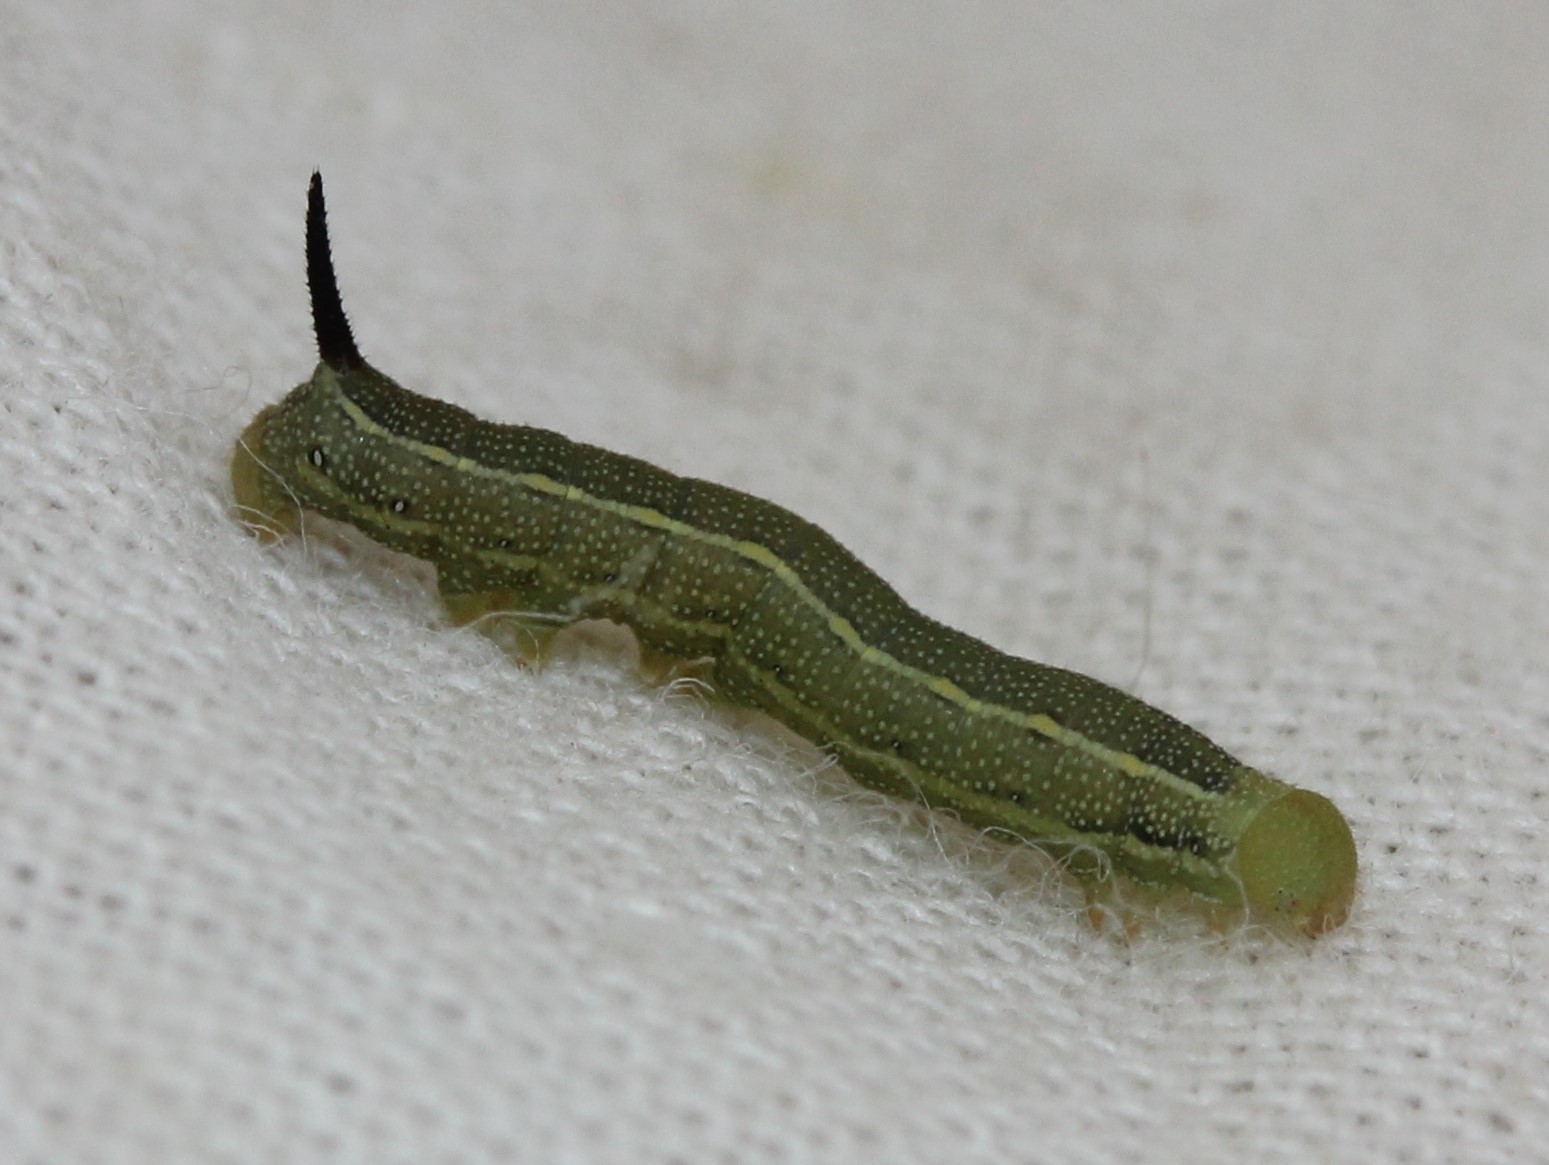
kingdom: Animalia
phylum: Arthropoda
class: Insecta
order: Lepidoptera
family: Sphingidae
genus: Hyles
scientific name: Hyles lineata
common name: White-lined sphinx
